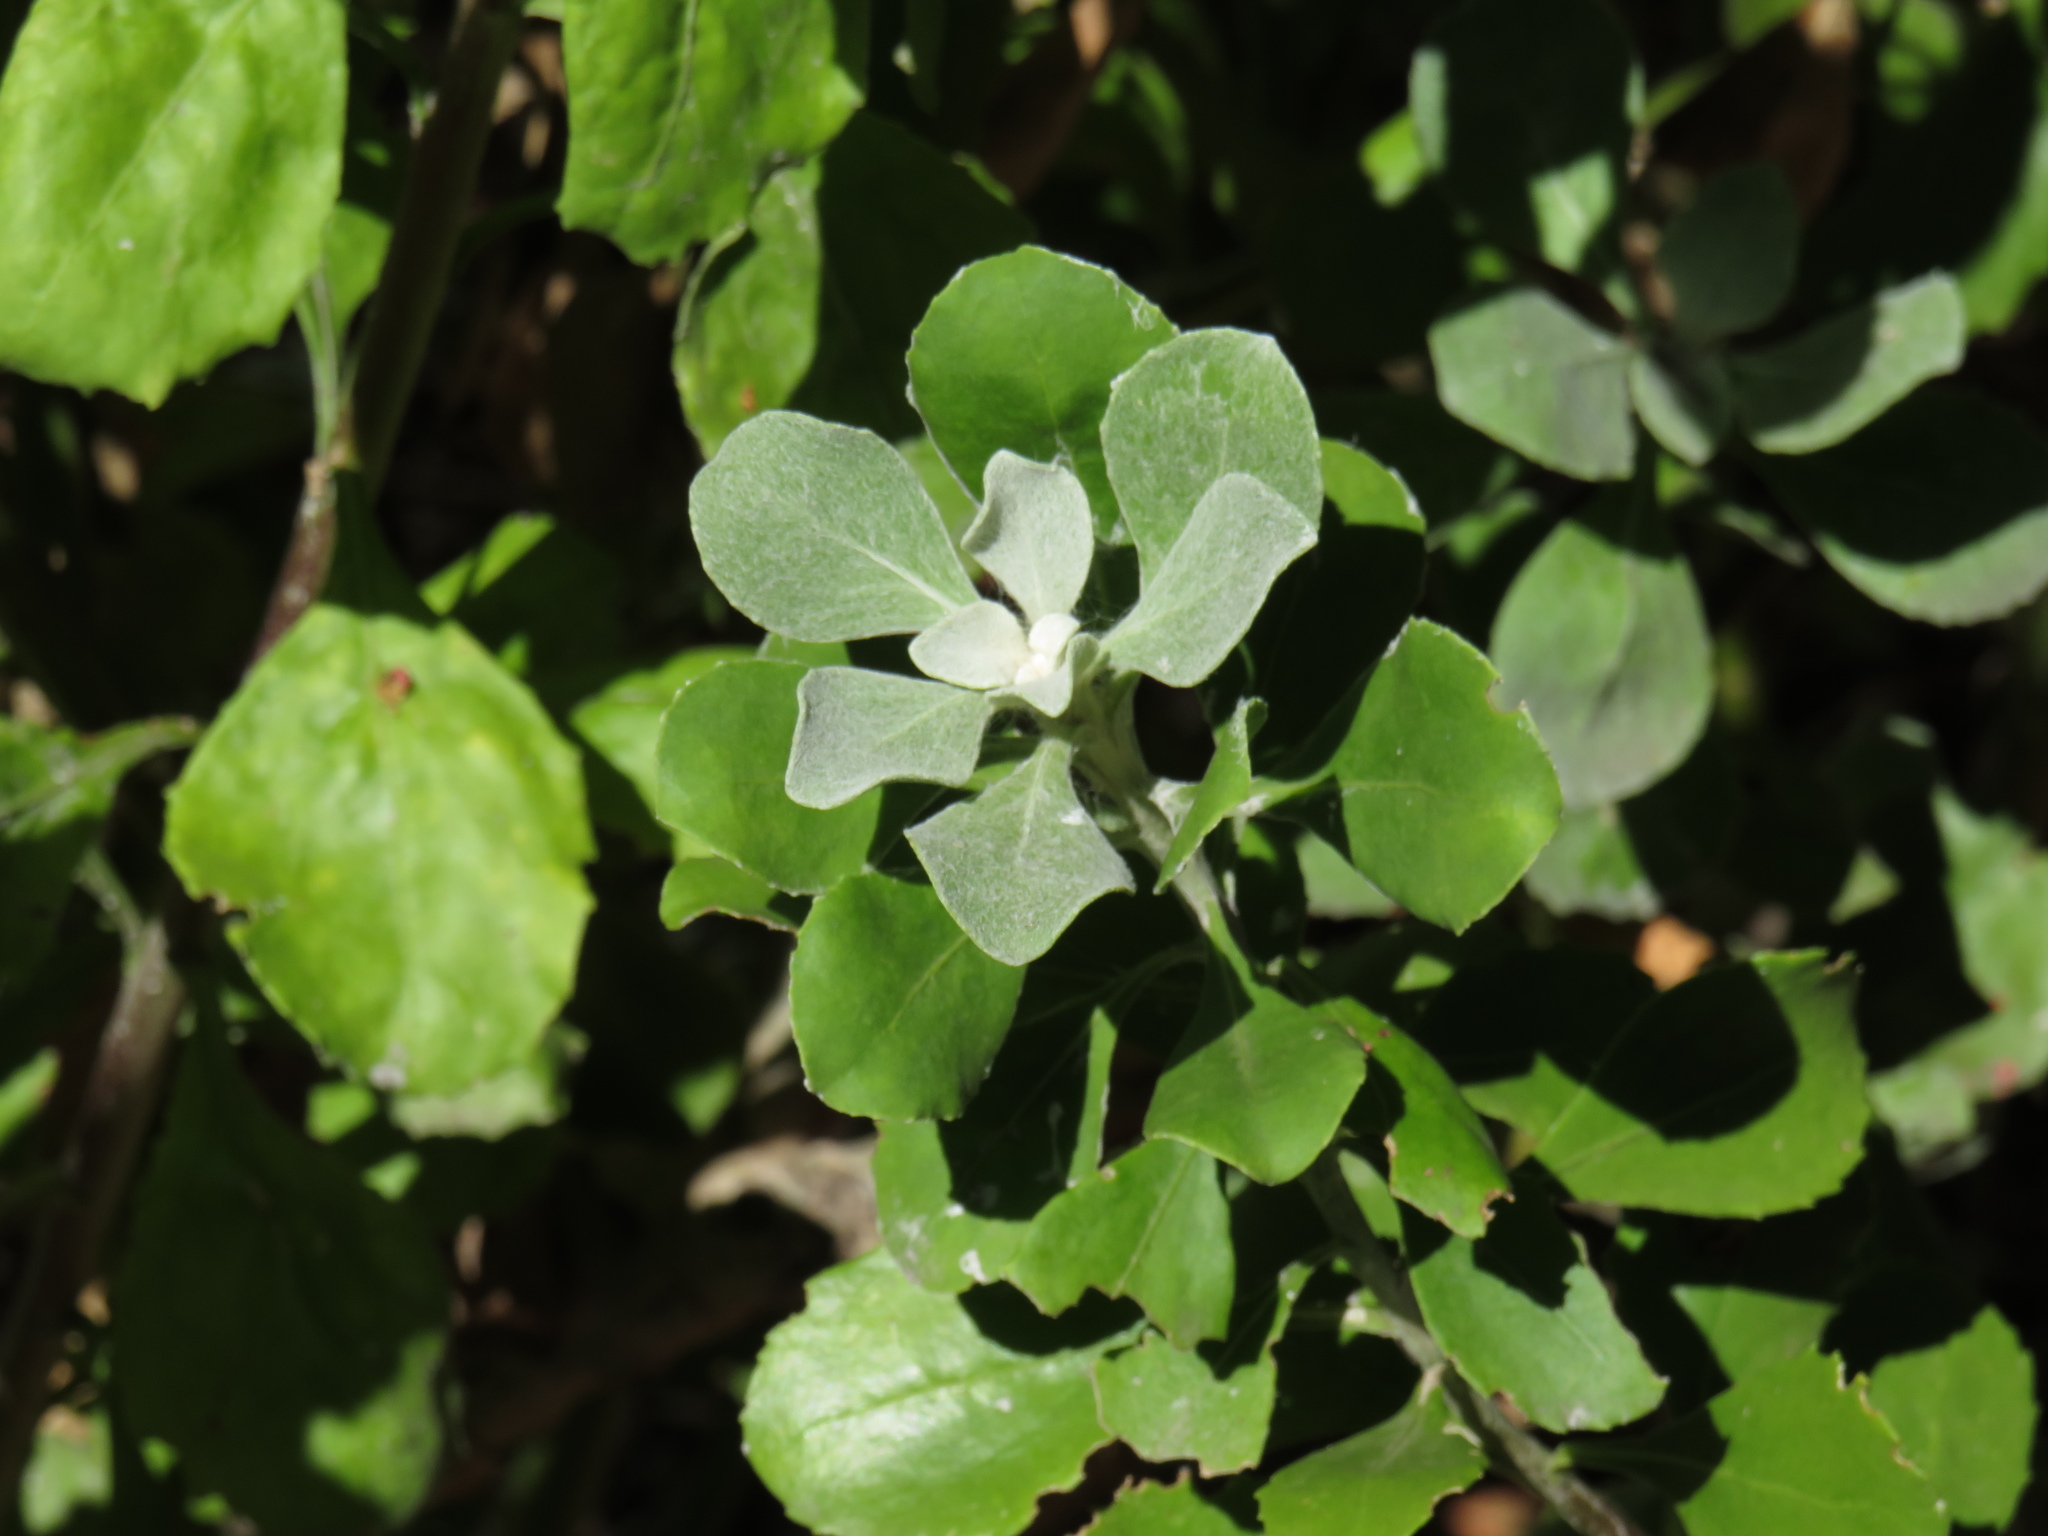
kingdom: Plantae
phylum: Tracheophyta
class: Magnoliopsida
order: Asterales
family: Asteraceae
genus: Osteospermum
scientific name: Osteospermum moniliferum
